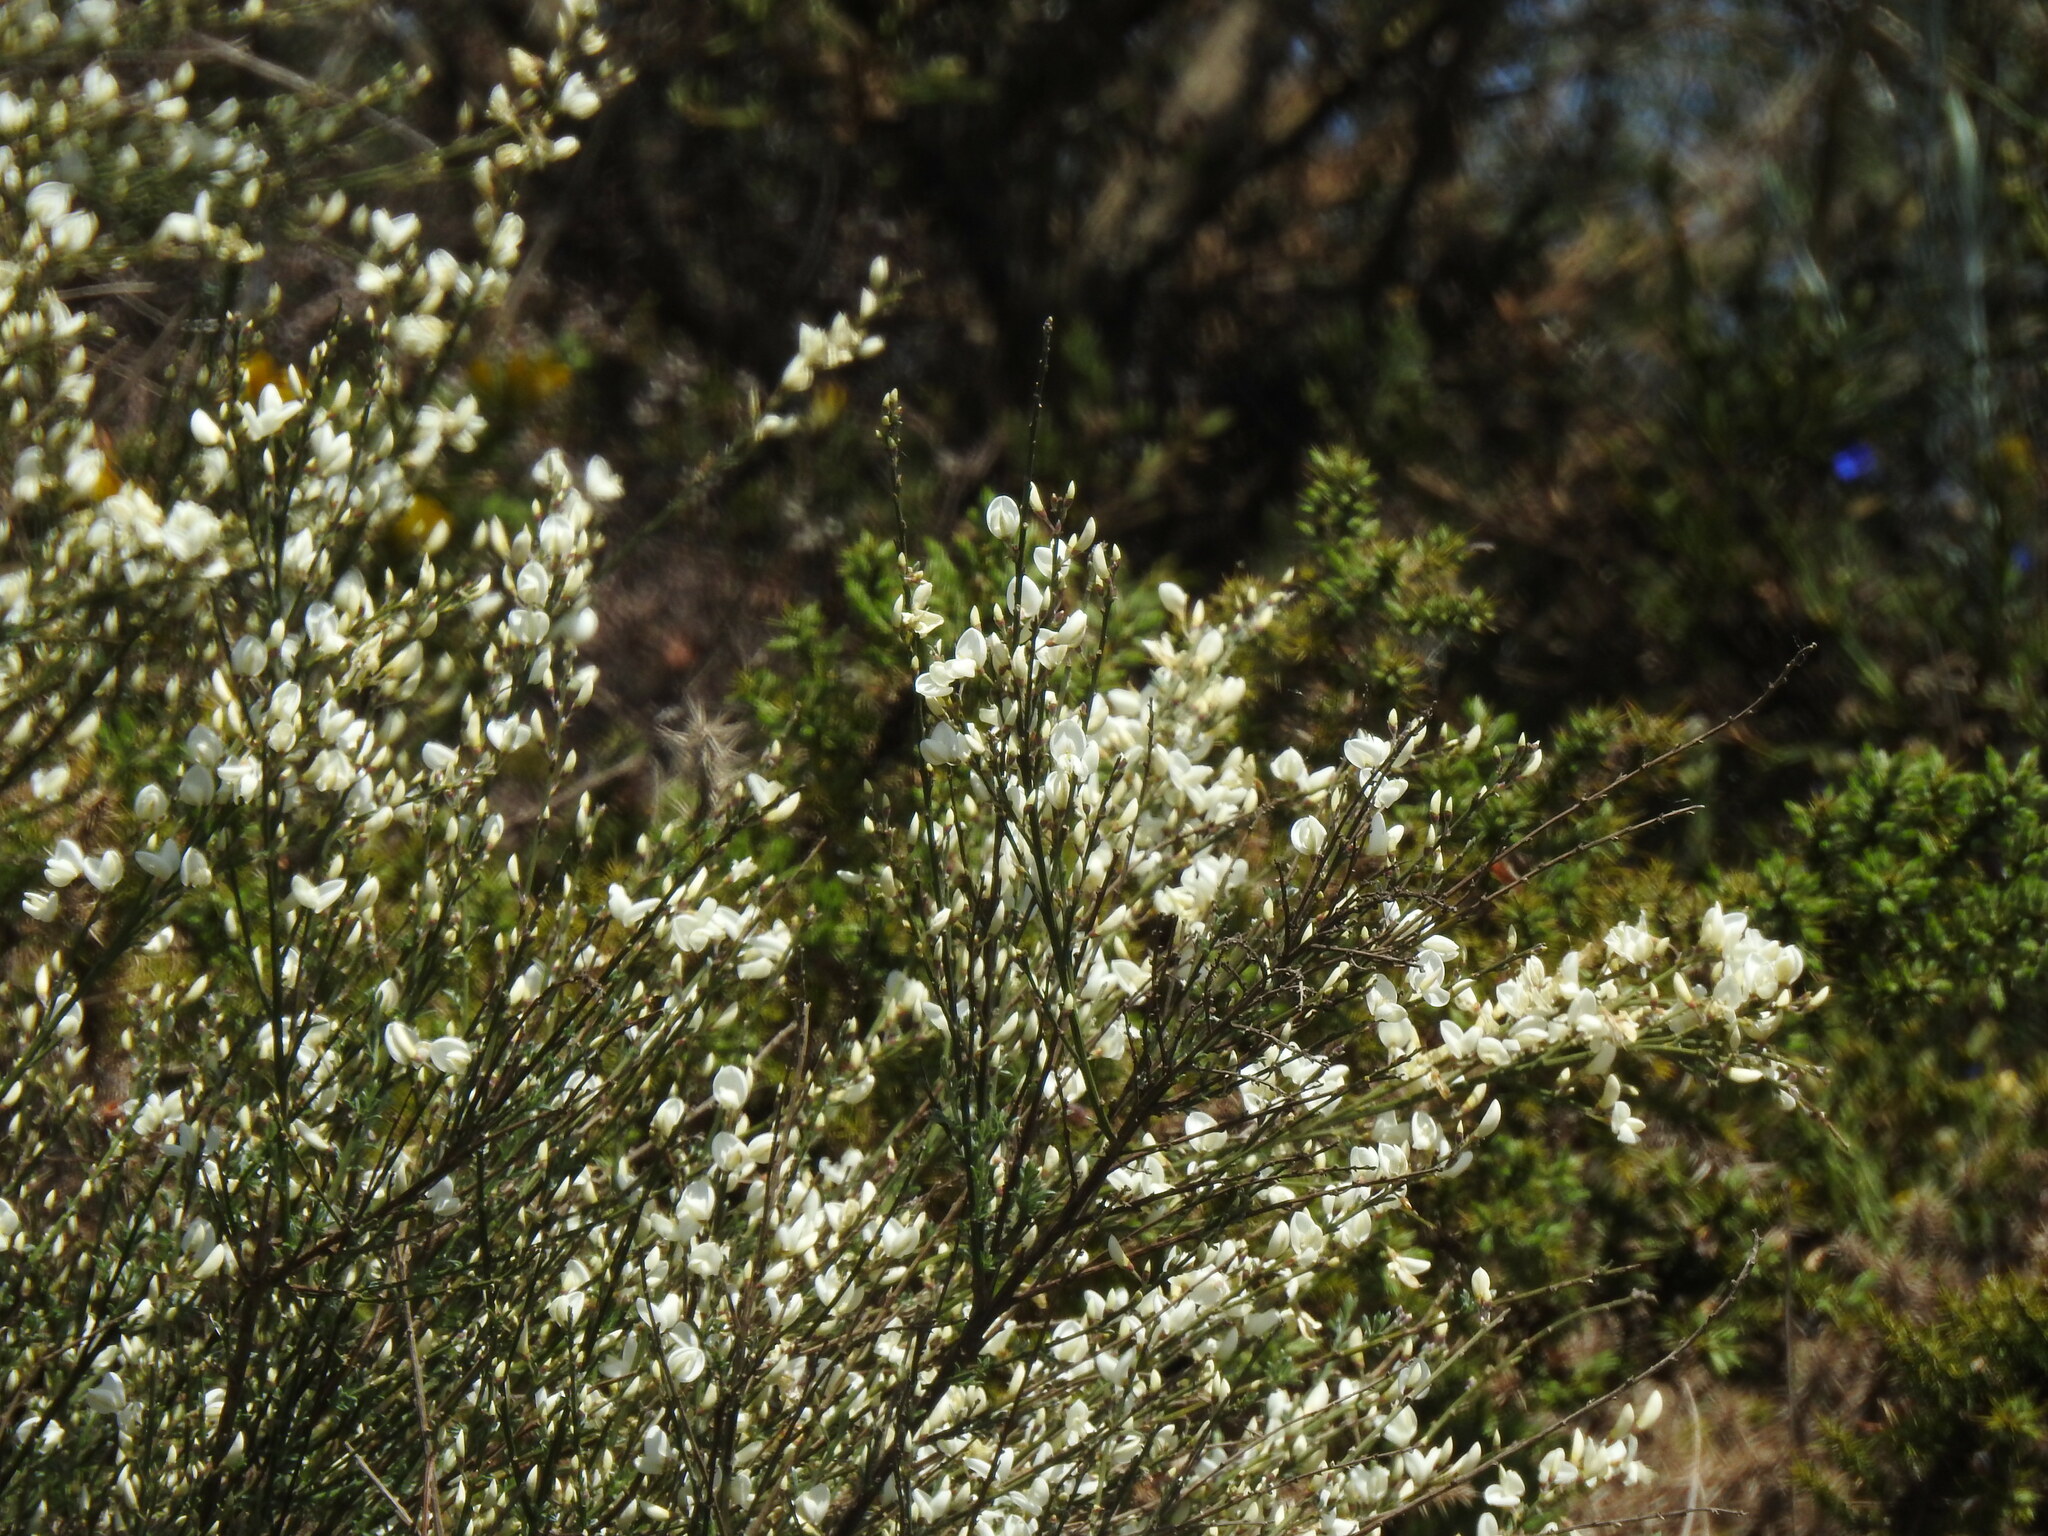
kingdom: Plantae
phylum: Tracheophyta
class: Magnoliopsida
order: Fabales
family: Fabaceae
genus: Cytisus
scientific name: Cytisus multiflorus
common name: White broom
